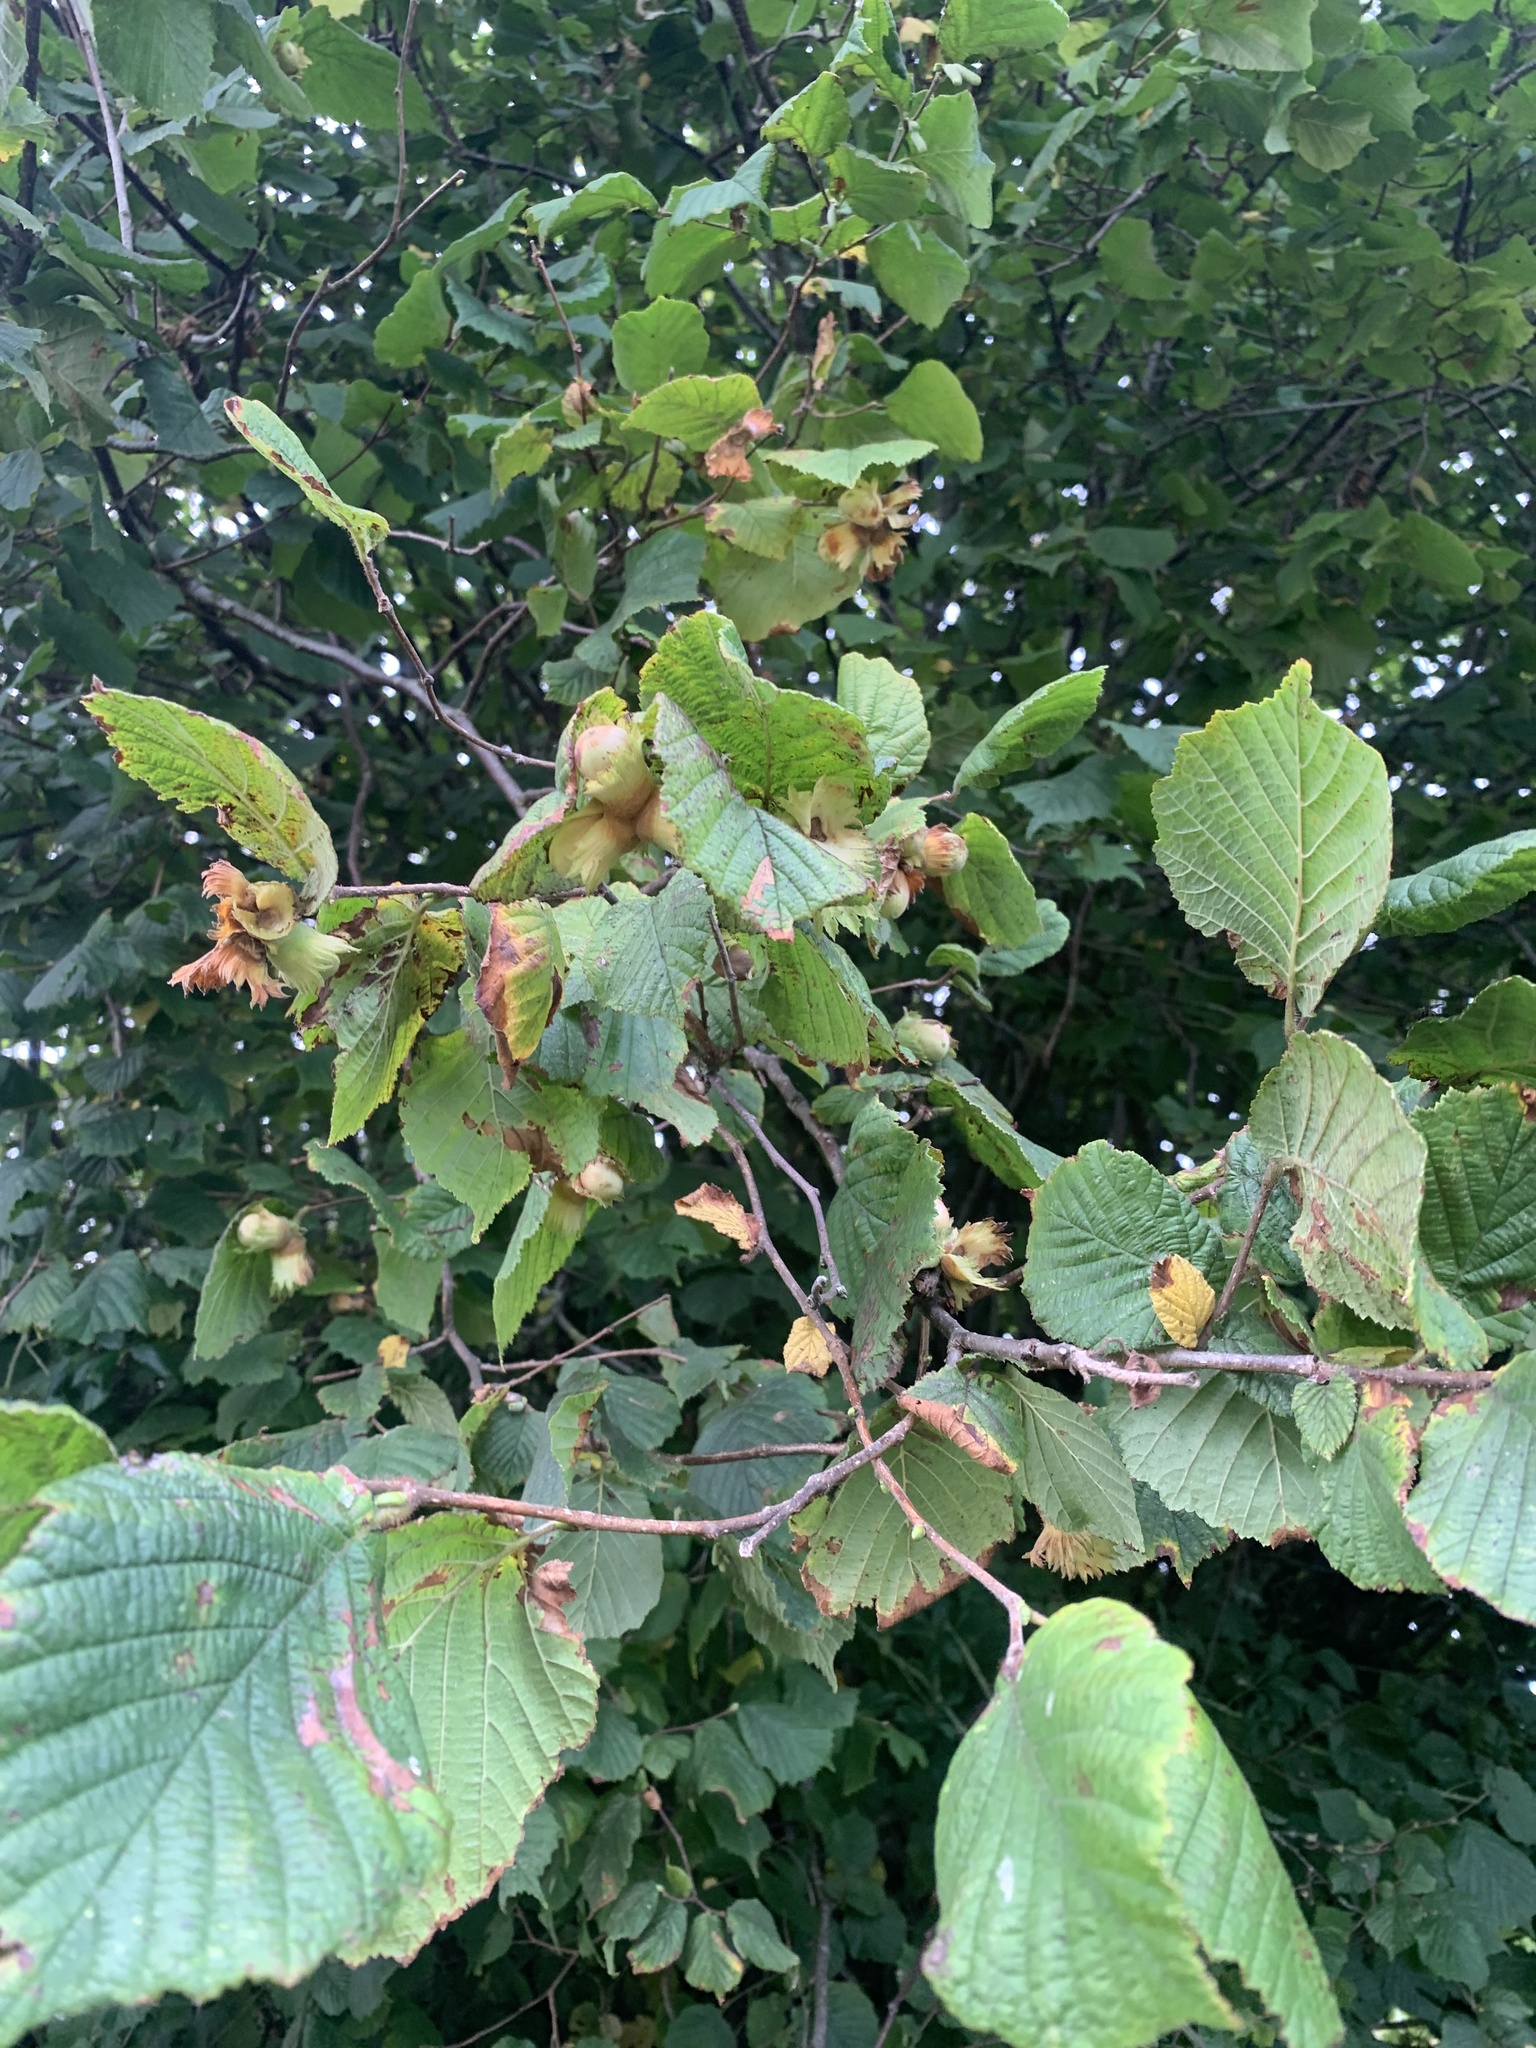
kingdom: Plantae
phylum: Tracheophyta
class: Magnoliopsida
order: Fagales
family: Betulaceae
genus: Corylus
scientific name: Corylus avellana
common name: European hazel
